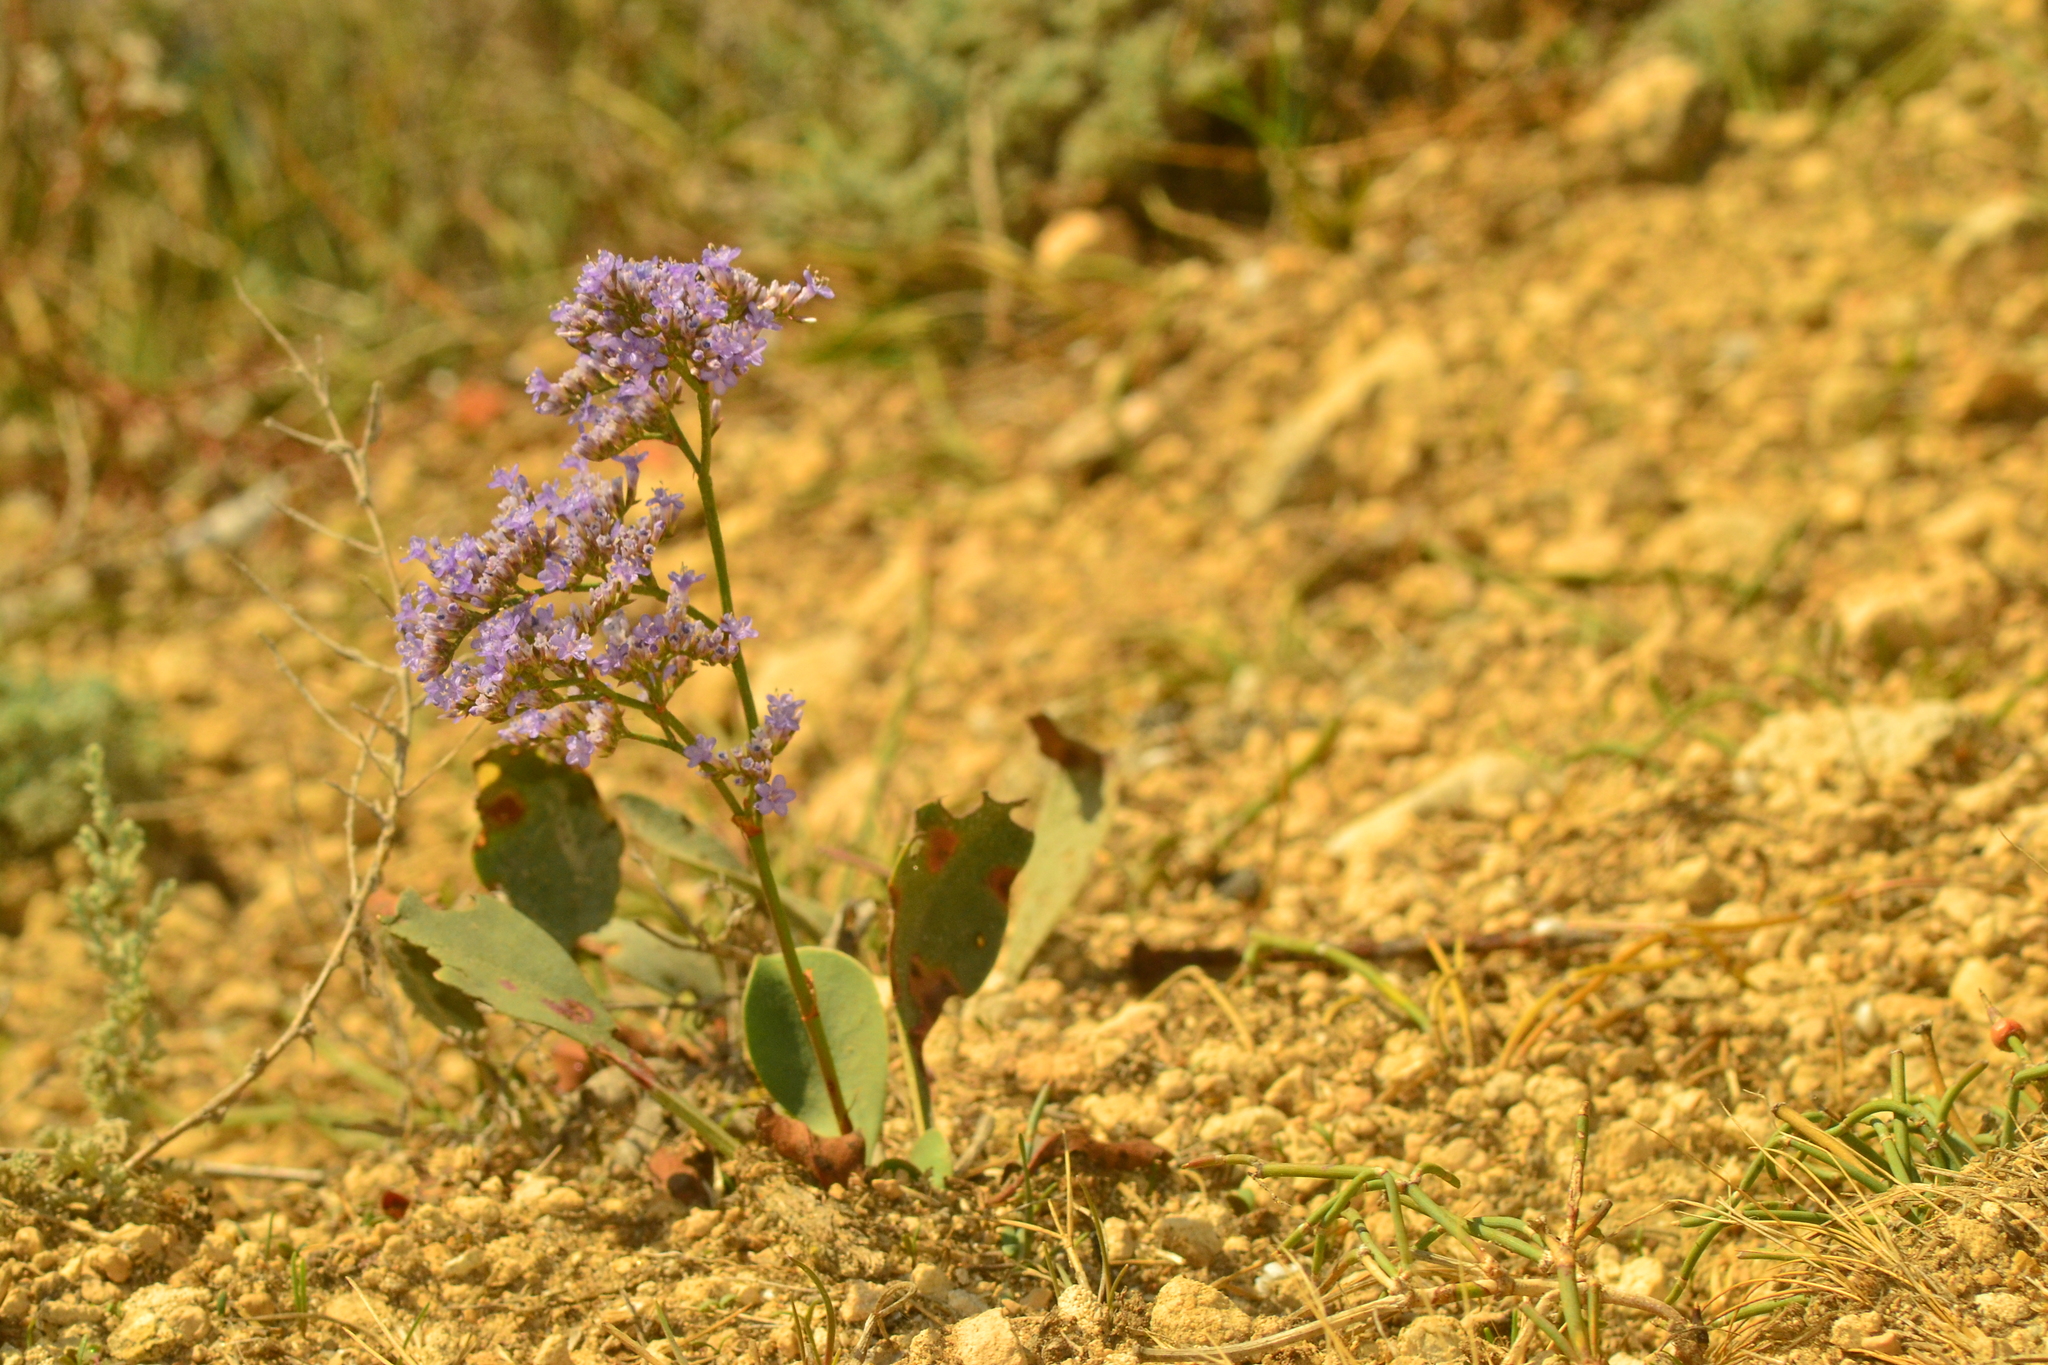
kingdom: Plantae
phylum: Tracheophyta
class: Magnoliopsida
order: Caryophyllales
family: Plumbaginaceae
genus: Limonium
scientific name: Limonium platyphyllum
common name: Florist's sea lavender
